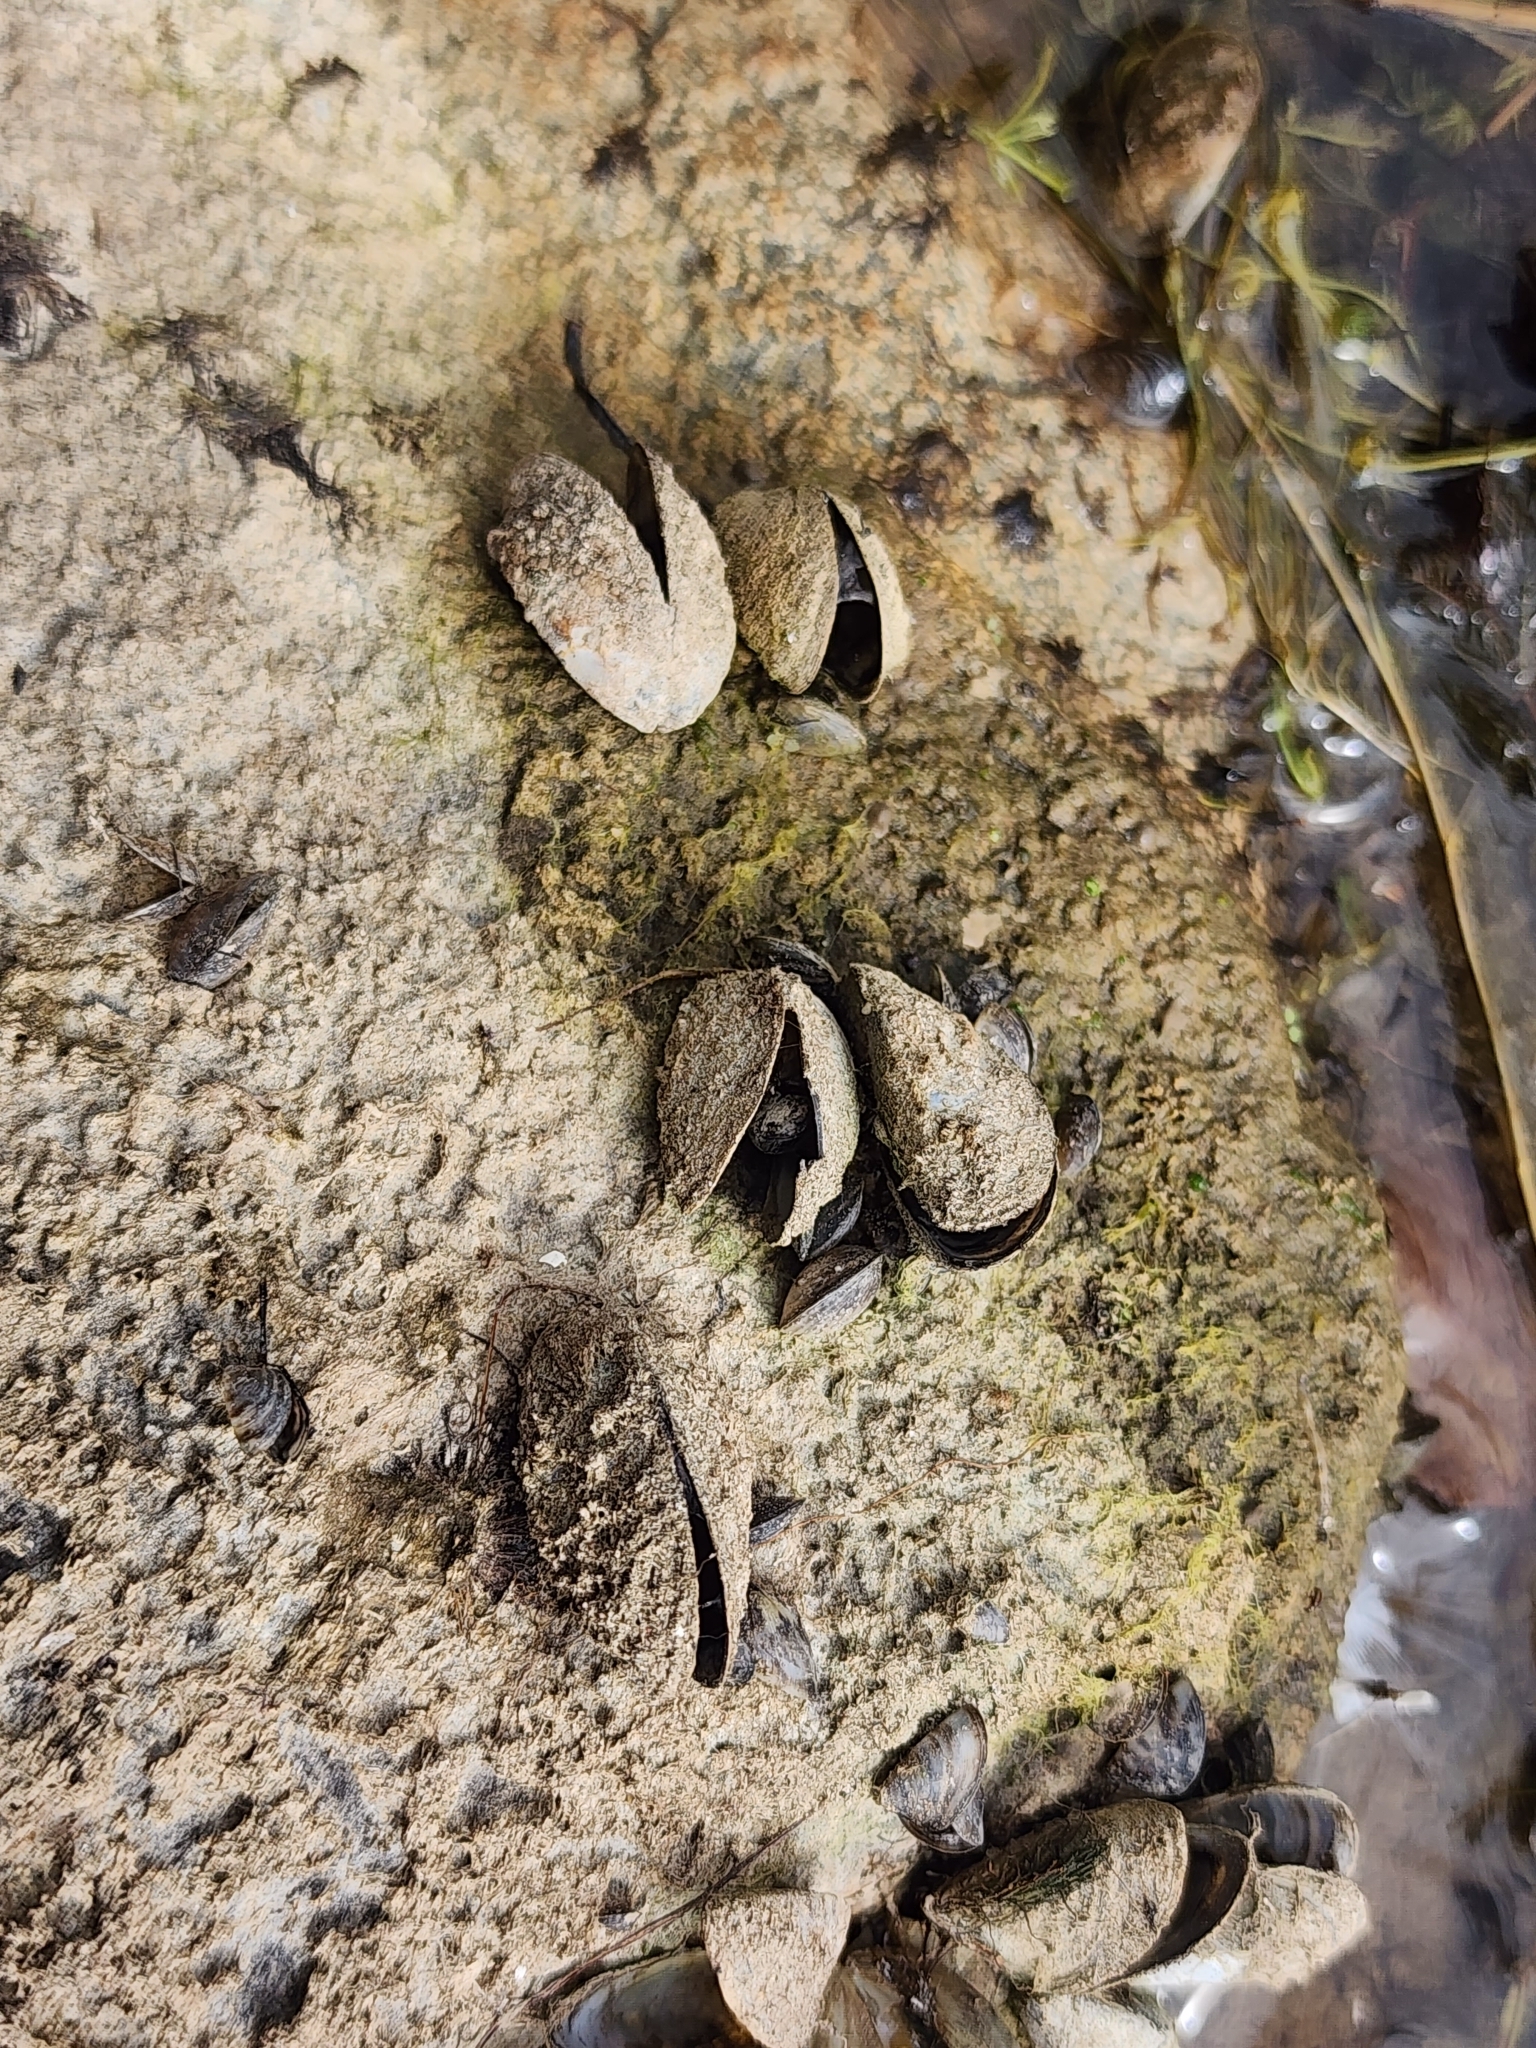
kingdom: Animalia
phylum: Mollusca
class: Bivalvia
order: Myida
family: Dreissenidae
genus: Dreissena
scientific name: Dreissena polymorpha
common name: Zebra mussel
